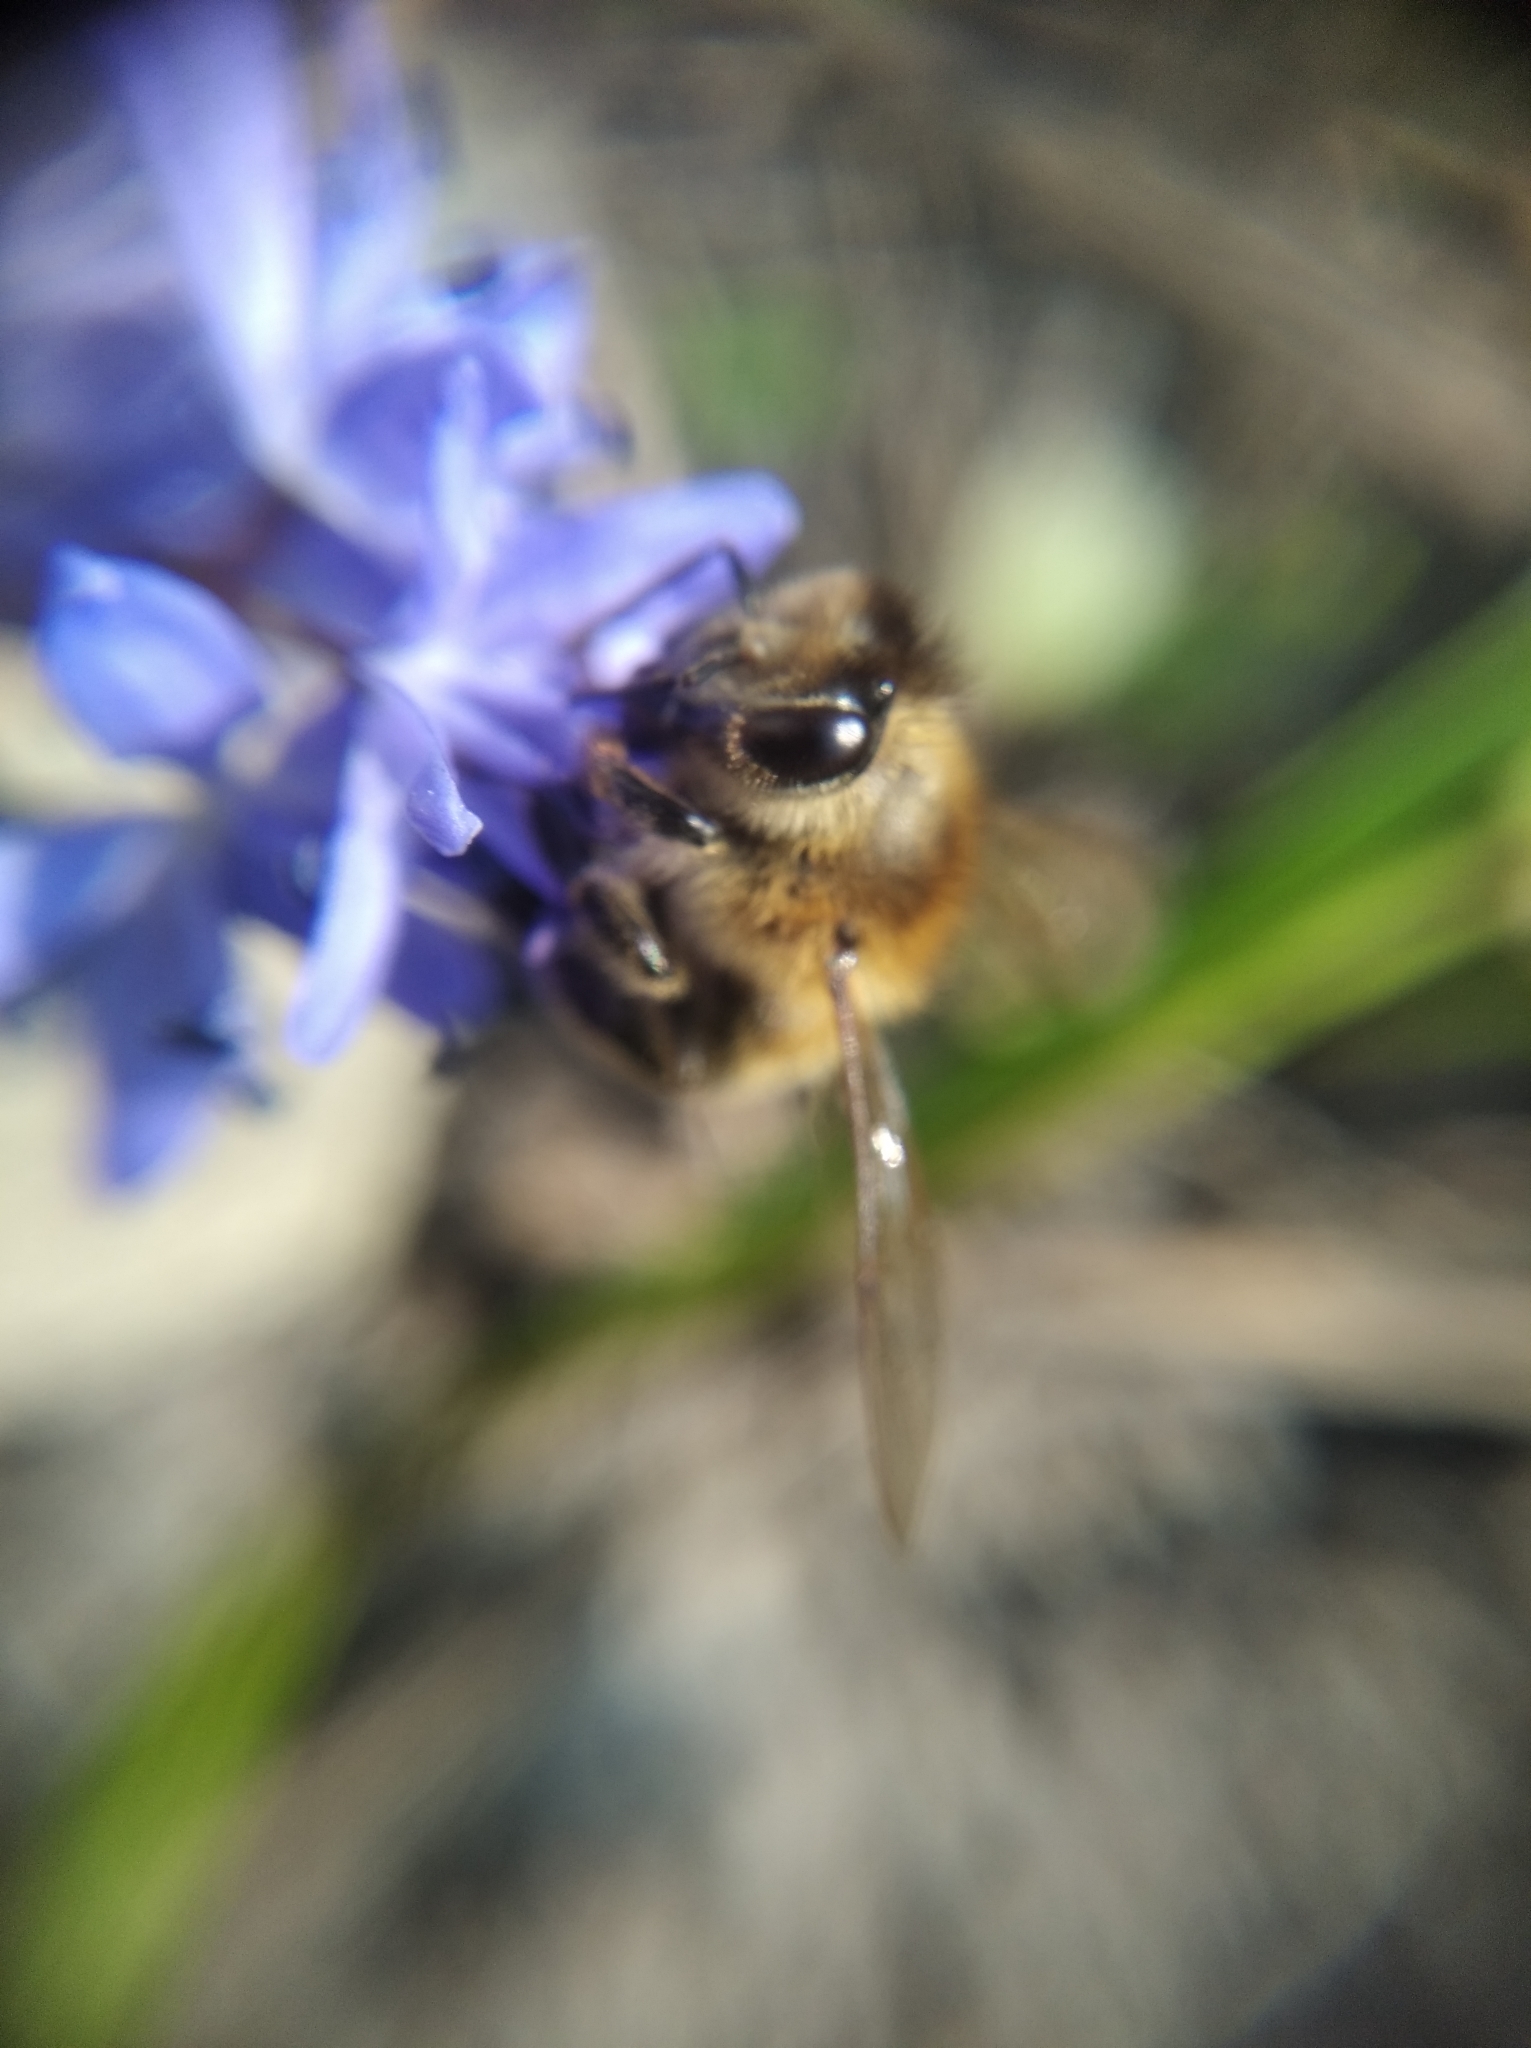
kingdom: Animalia
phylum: Arthropoda
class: Insecta
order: Hymenoptera
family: Apidae
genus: Apis
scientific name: Apis mellifera
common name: Honey bee
